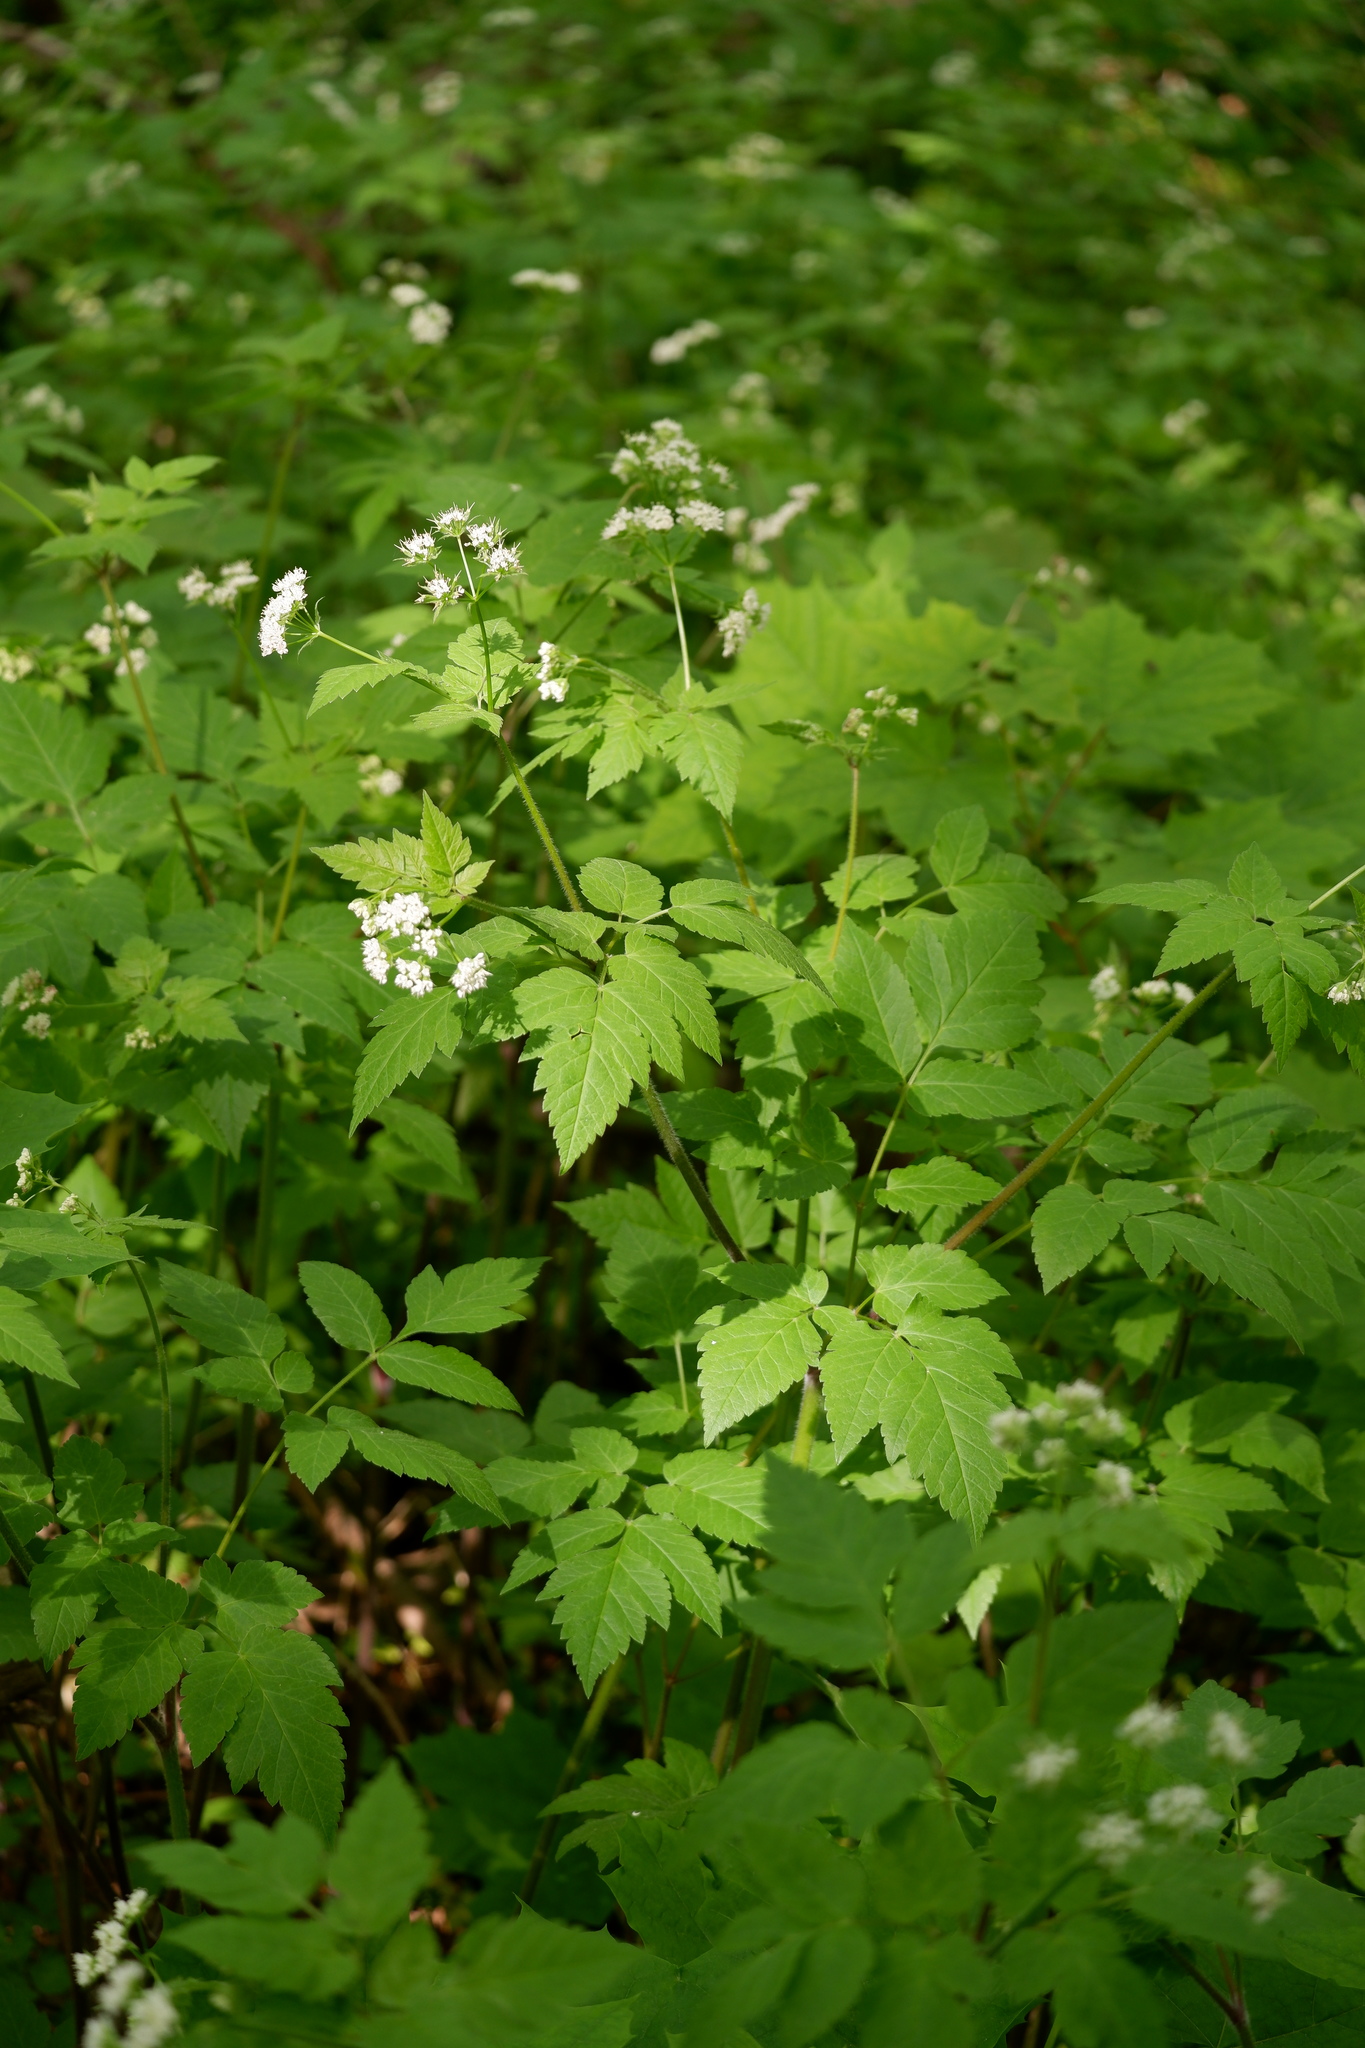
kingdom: Plantae
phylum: Tracheophyta
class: Magnoliopsida
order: Apiales
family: Apiaceae
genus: Osmorhiza
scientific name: Osmorhiza longistylis
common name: Smooth sweet cicely
